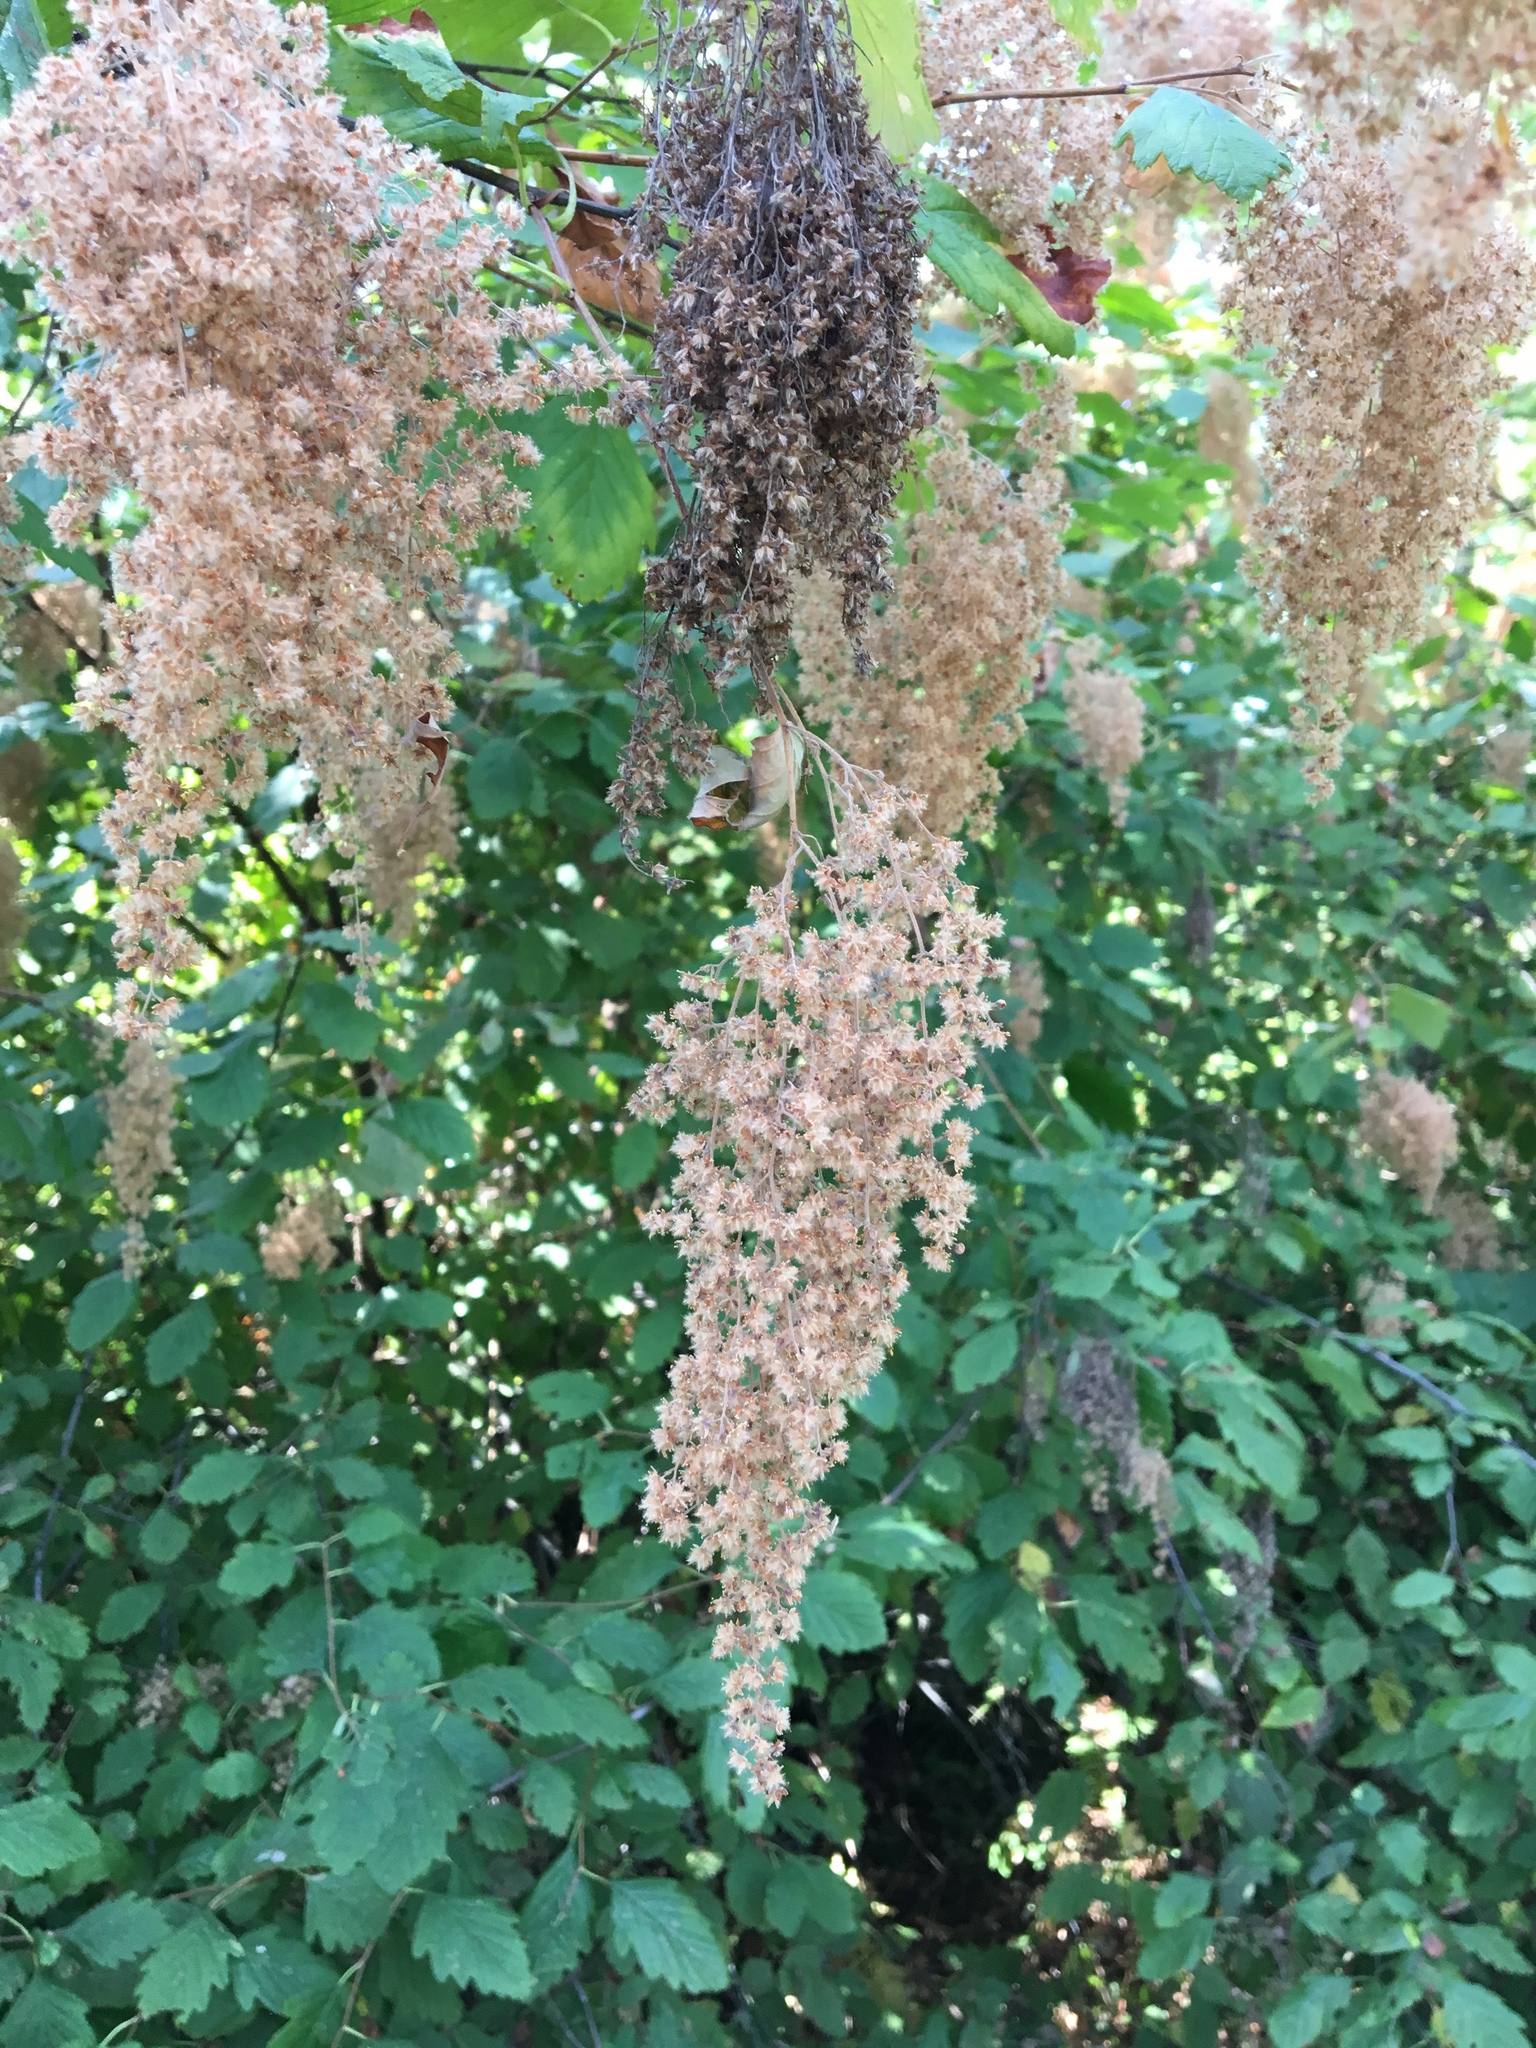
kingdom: Plantae
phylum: Tracheophyta
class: Magnoliopsida
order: Rosales
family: Rosaceae
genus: Holodiscus
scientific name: Holodiscus discolor
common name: Oceanspray
